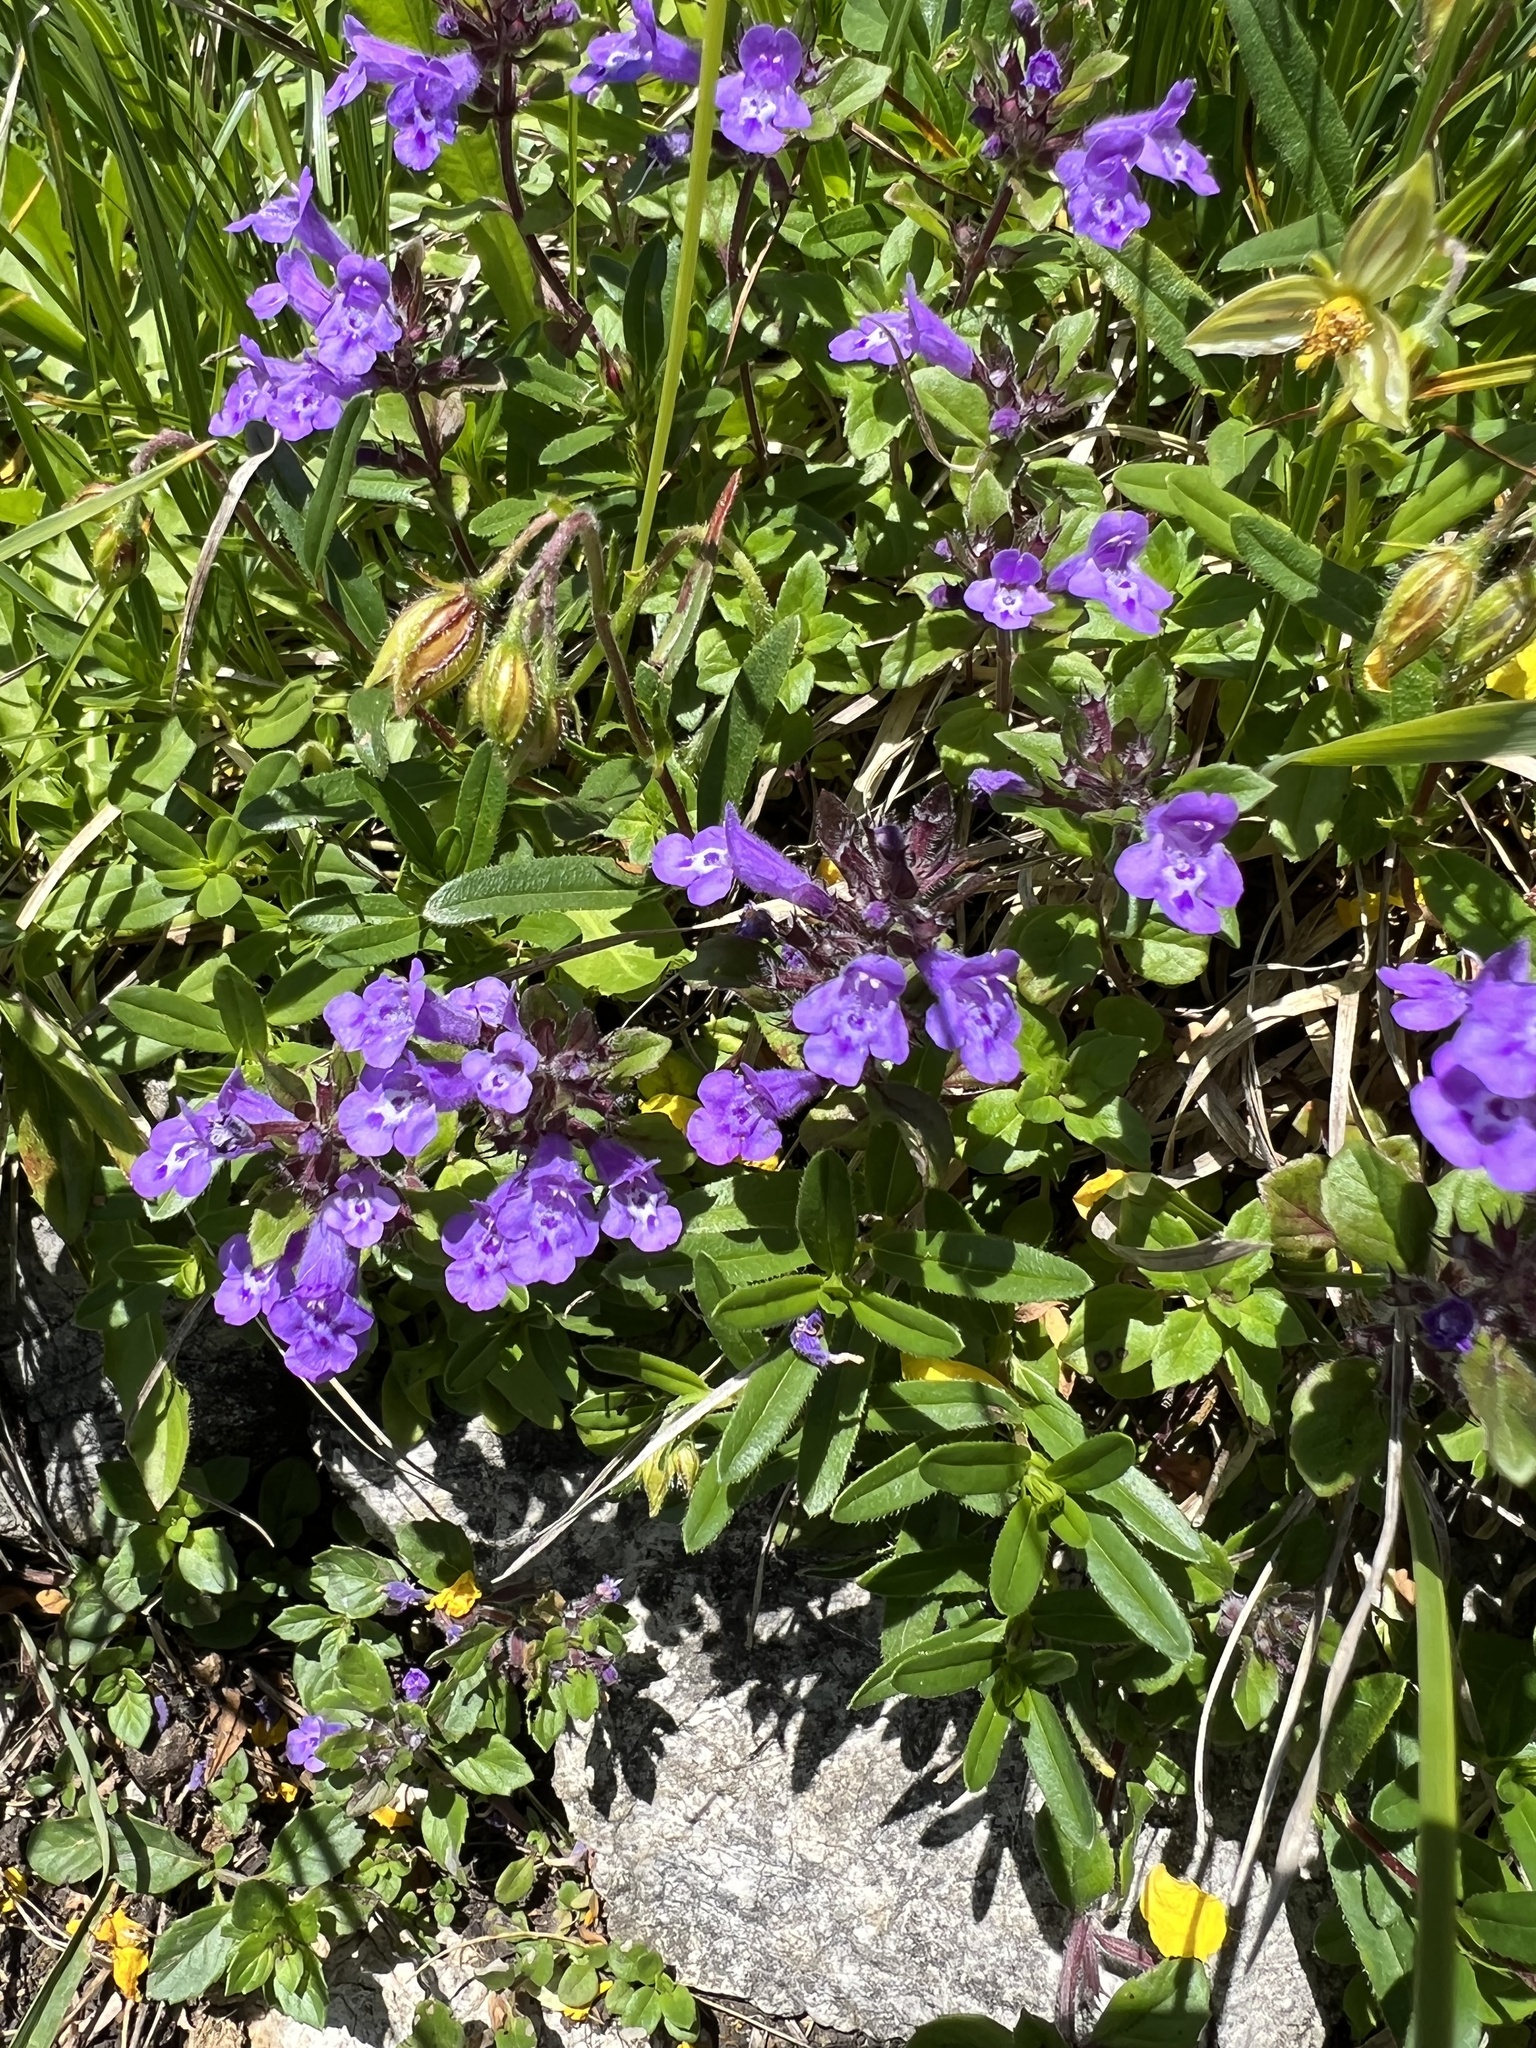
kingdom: Plantae
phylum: Tracheophyta
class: Magnoliopsida
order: Lamiales
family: Lamiaceae
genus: Clinopodium
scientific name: Clinopodium alpinum
